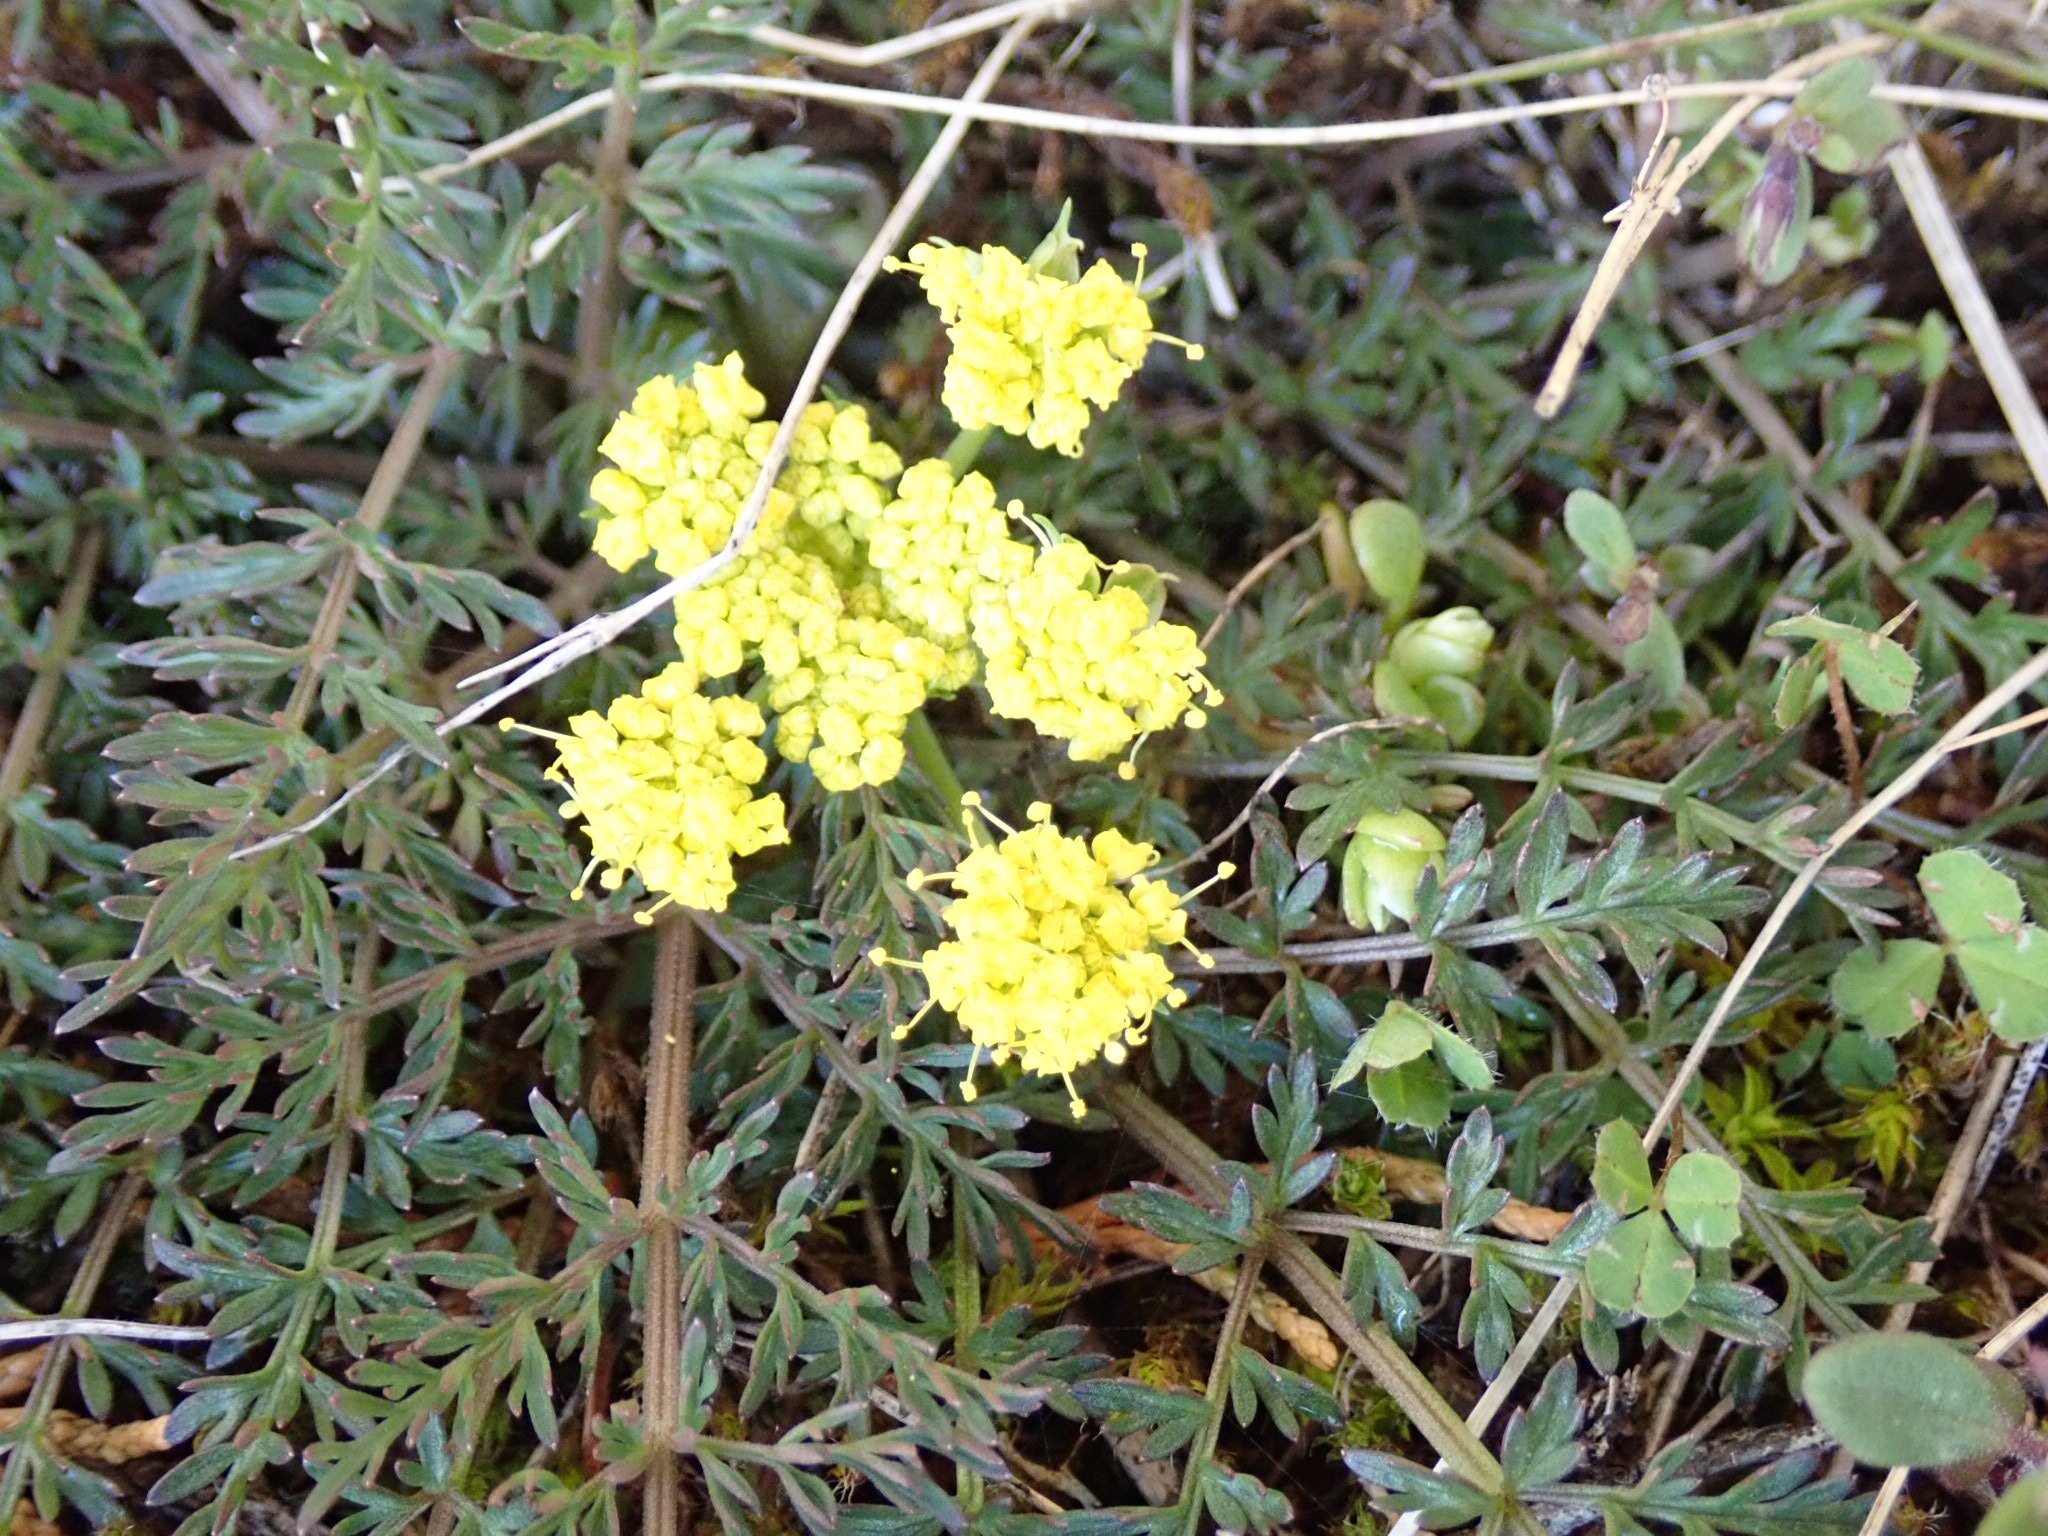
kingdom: Plantae
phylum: Tracheophyta
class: Magnoliopsida
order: Apiales
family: Apiaceae
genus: Lomatium
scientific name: Lomatium utriculatum
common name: Fine-leaf desert-parsley
